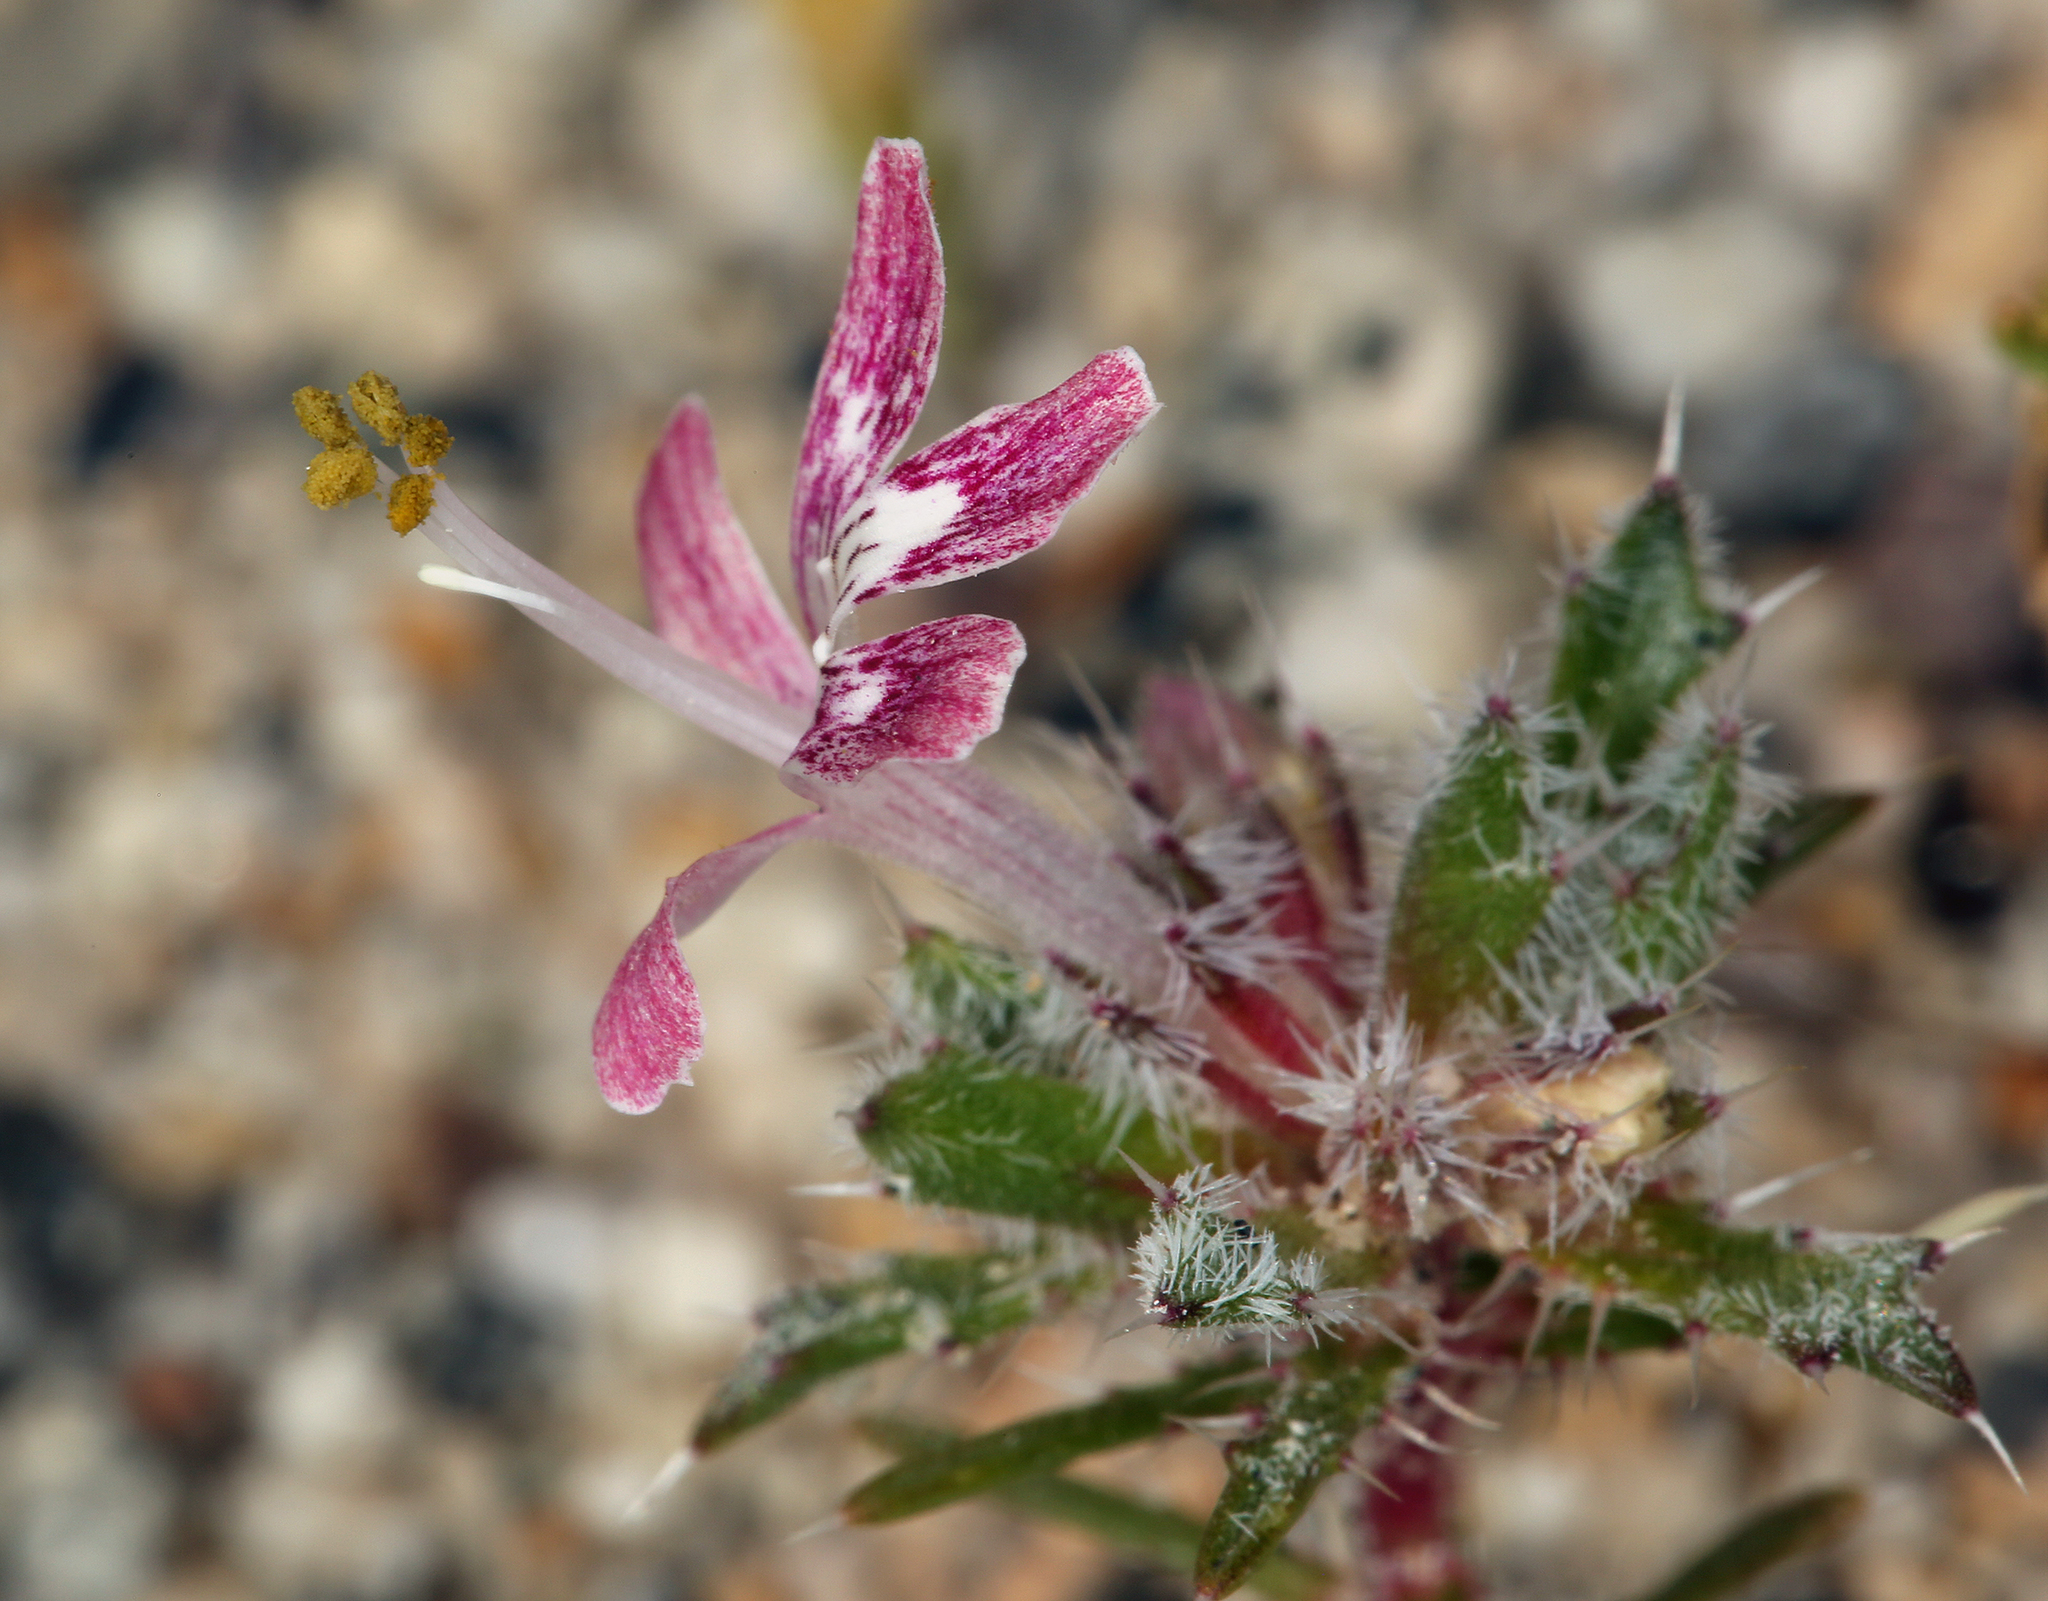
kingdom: Plantae
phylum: Tracheophyta
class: Magnoliopsida
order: Ericales
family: Polemoniaceae
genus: Loeseliastrum
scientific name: Loeseliastrum matthewsii
